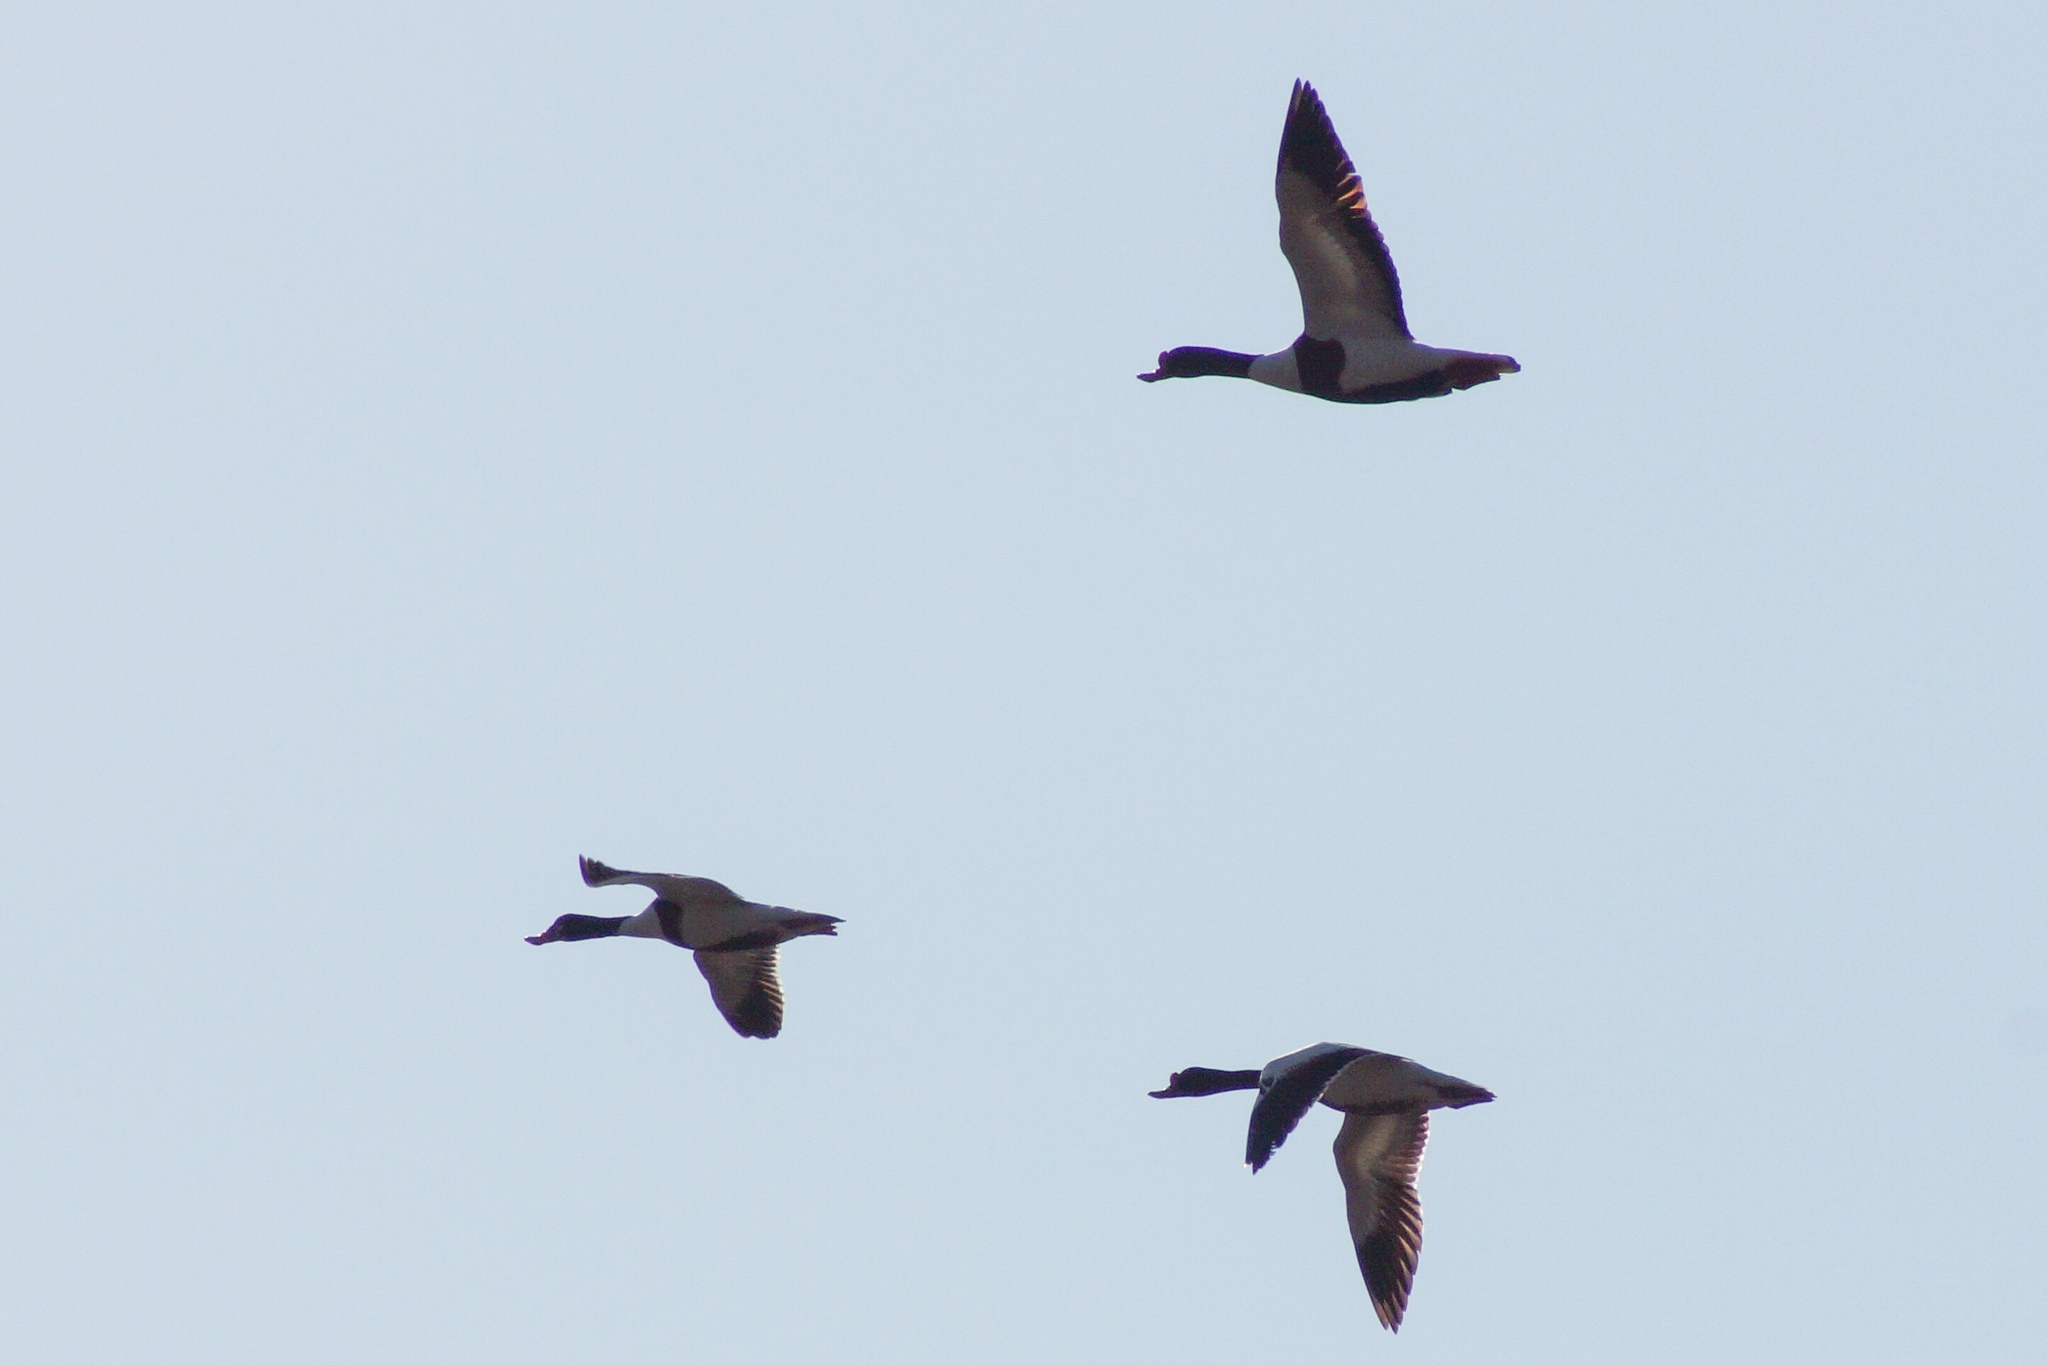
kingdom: Animalia
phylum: Chordata
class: Aves
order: Anseriformes
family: Anatidae
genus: Tadorna
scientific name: Tadorna tadorna
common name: Common shelduck
